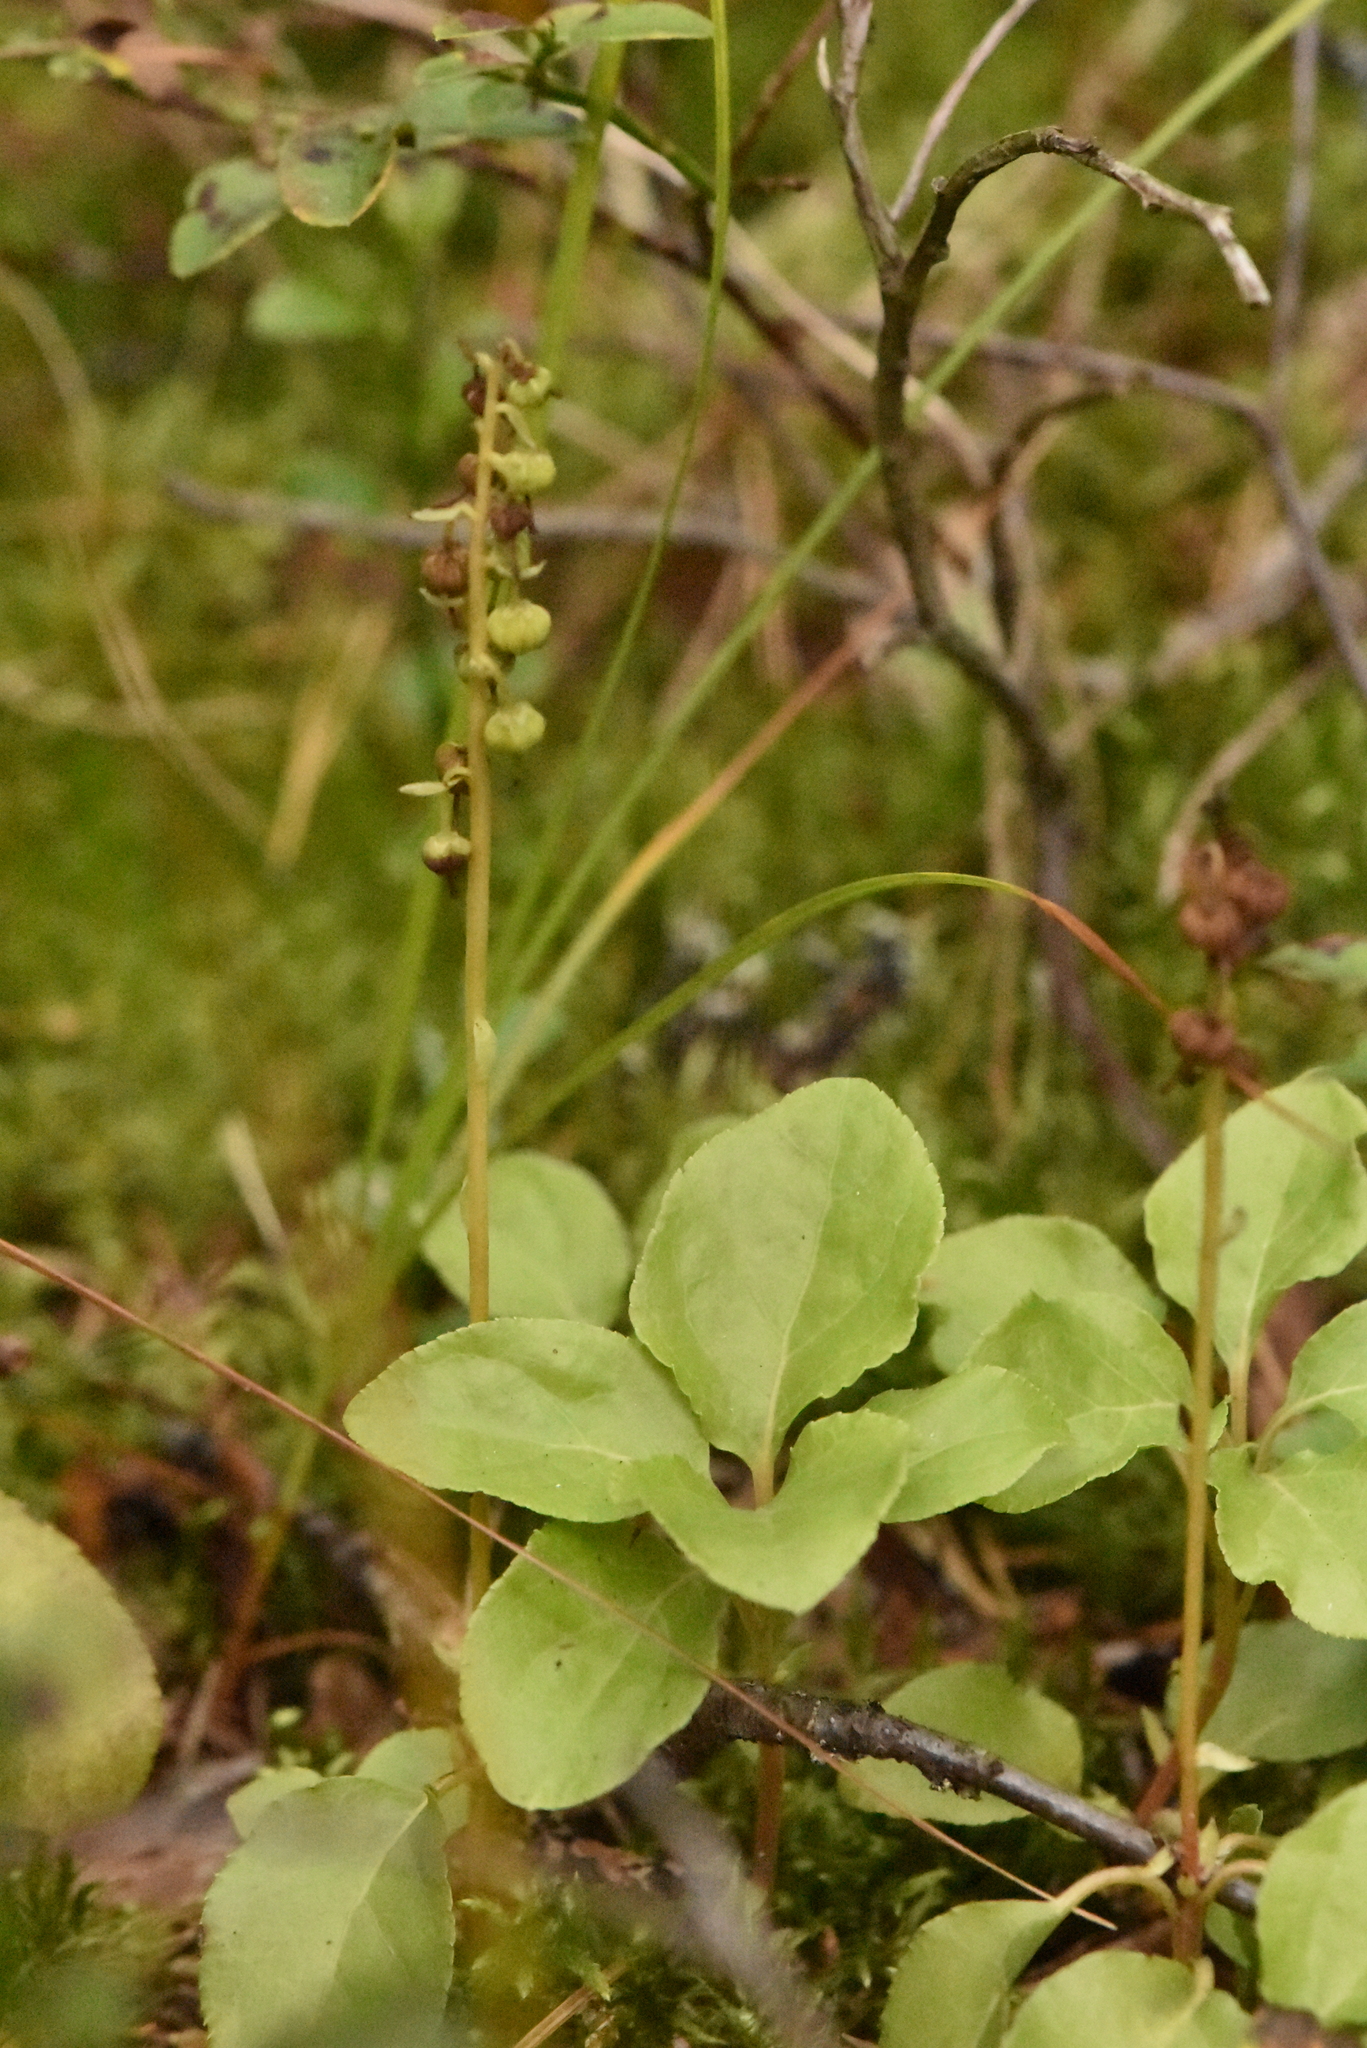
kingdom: Plantae
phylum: Tracheophyta
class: Magnoliopsida
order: Ericales
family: Ericaceae
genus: Orthilia
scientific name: Orthilia secunda
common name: One-sided orthilia
